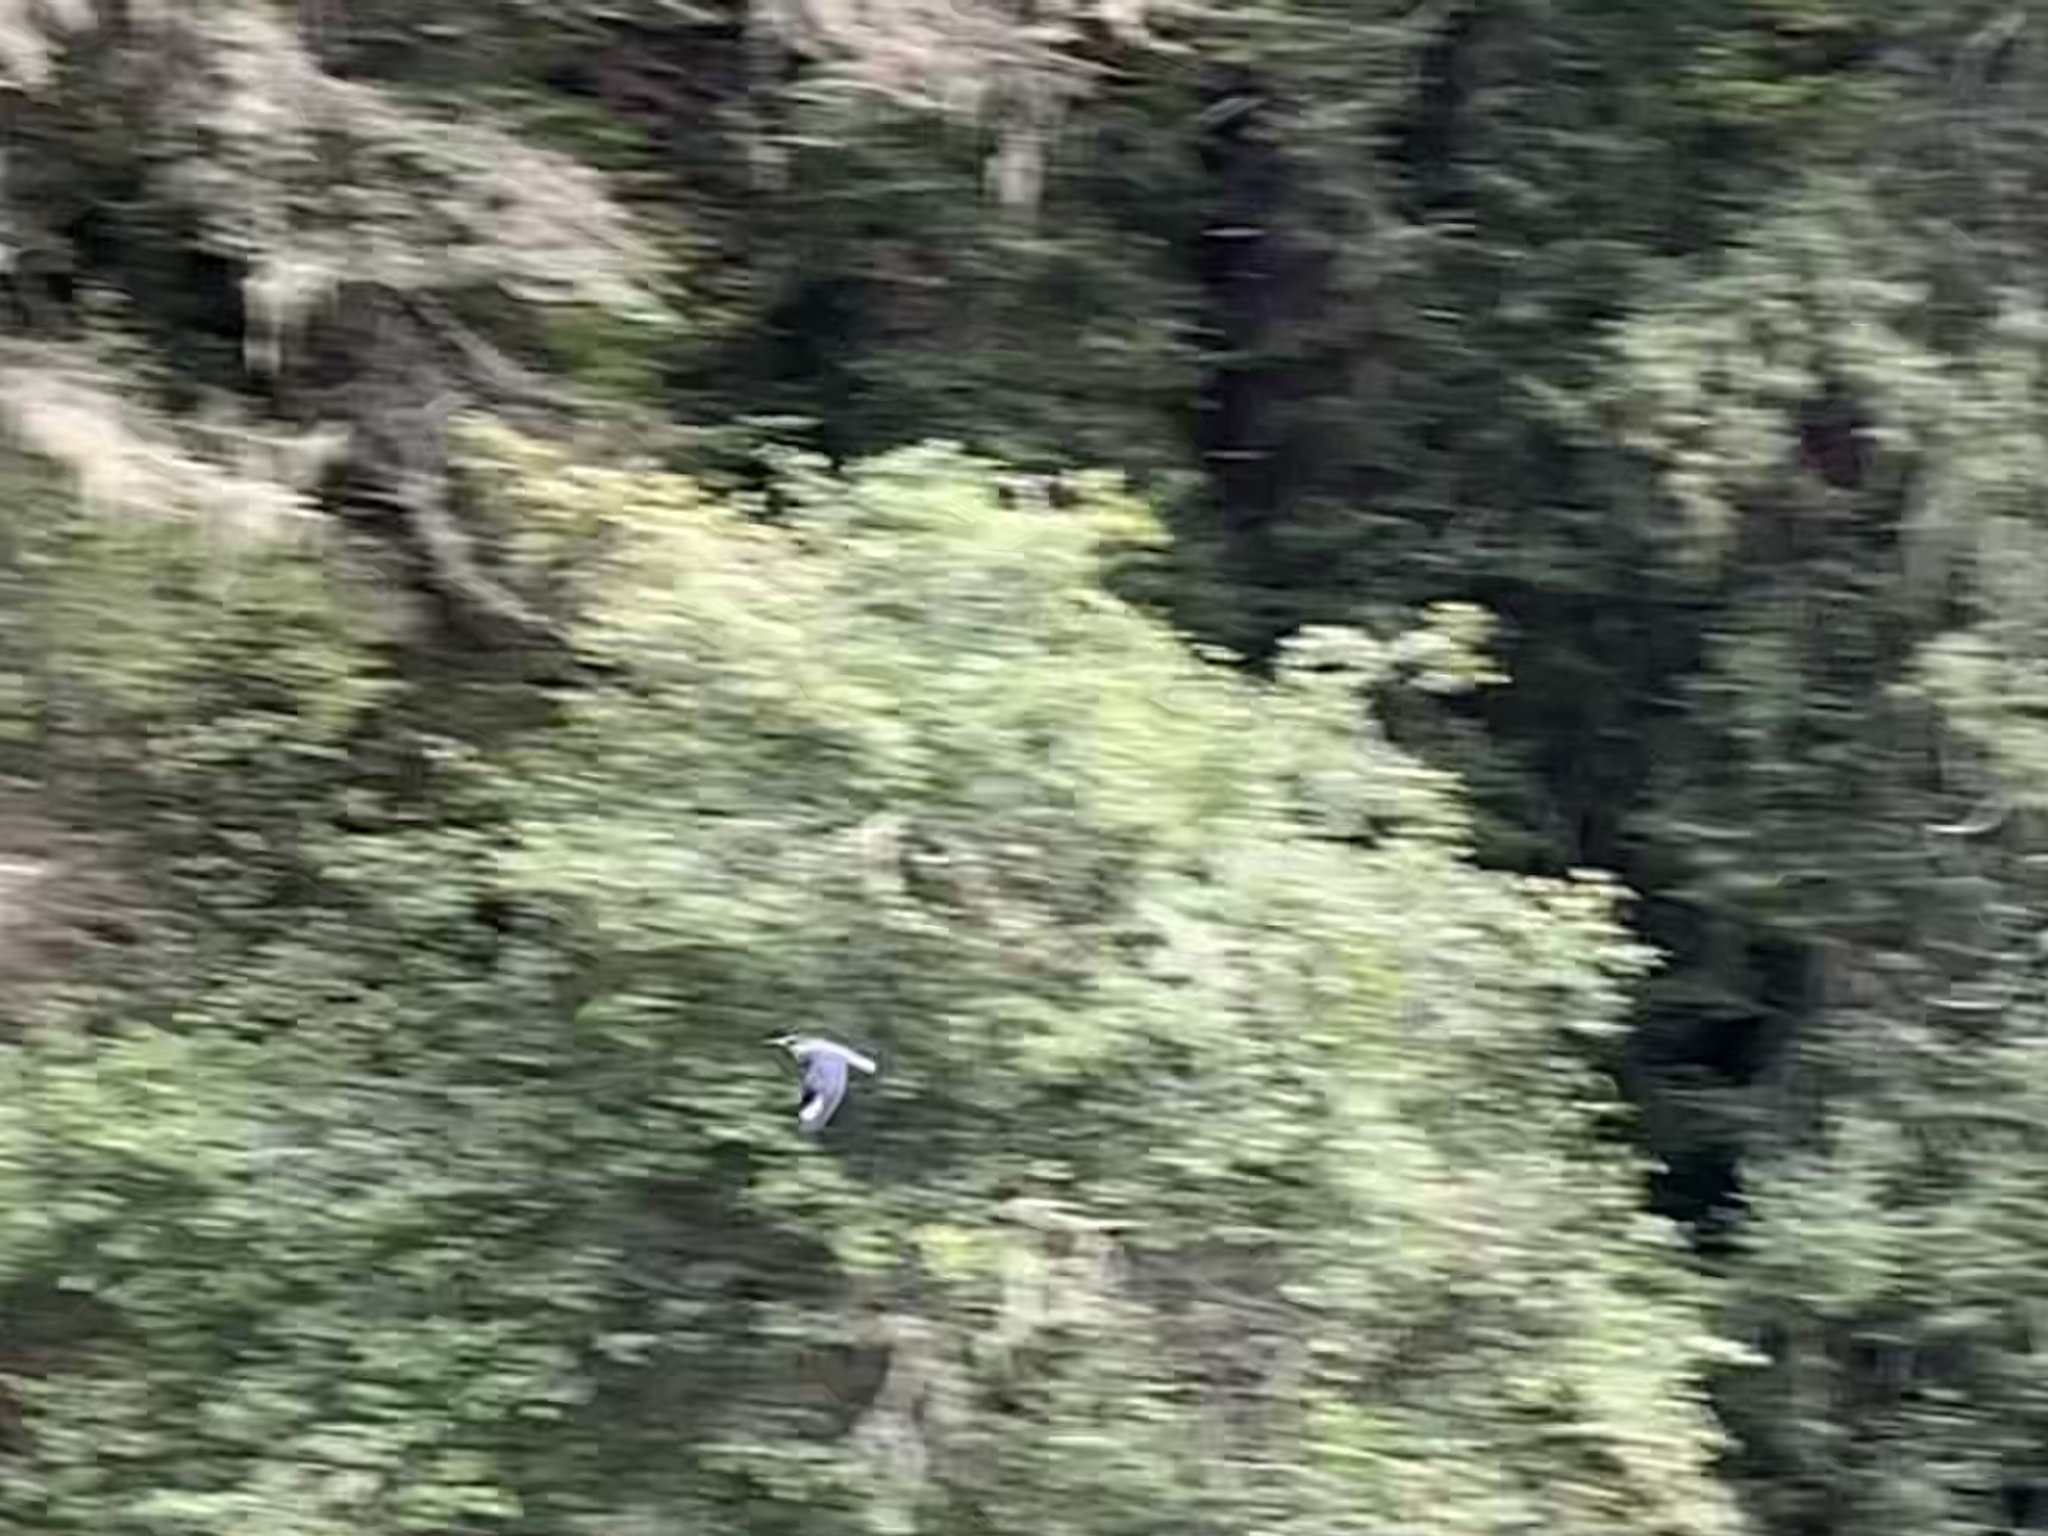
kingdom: Animalia
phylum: Chordata
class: Aves
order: Coraciiformes
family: Alcedinidae
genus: Megaceryle
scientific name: Megaceryle alcyon
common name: Belted kingfisher
